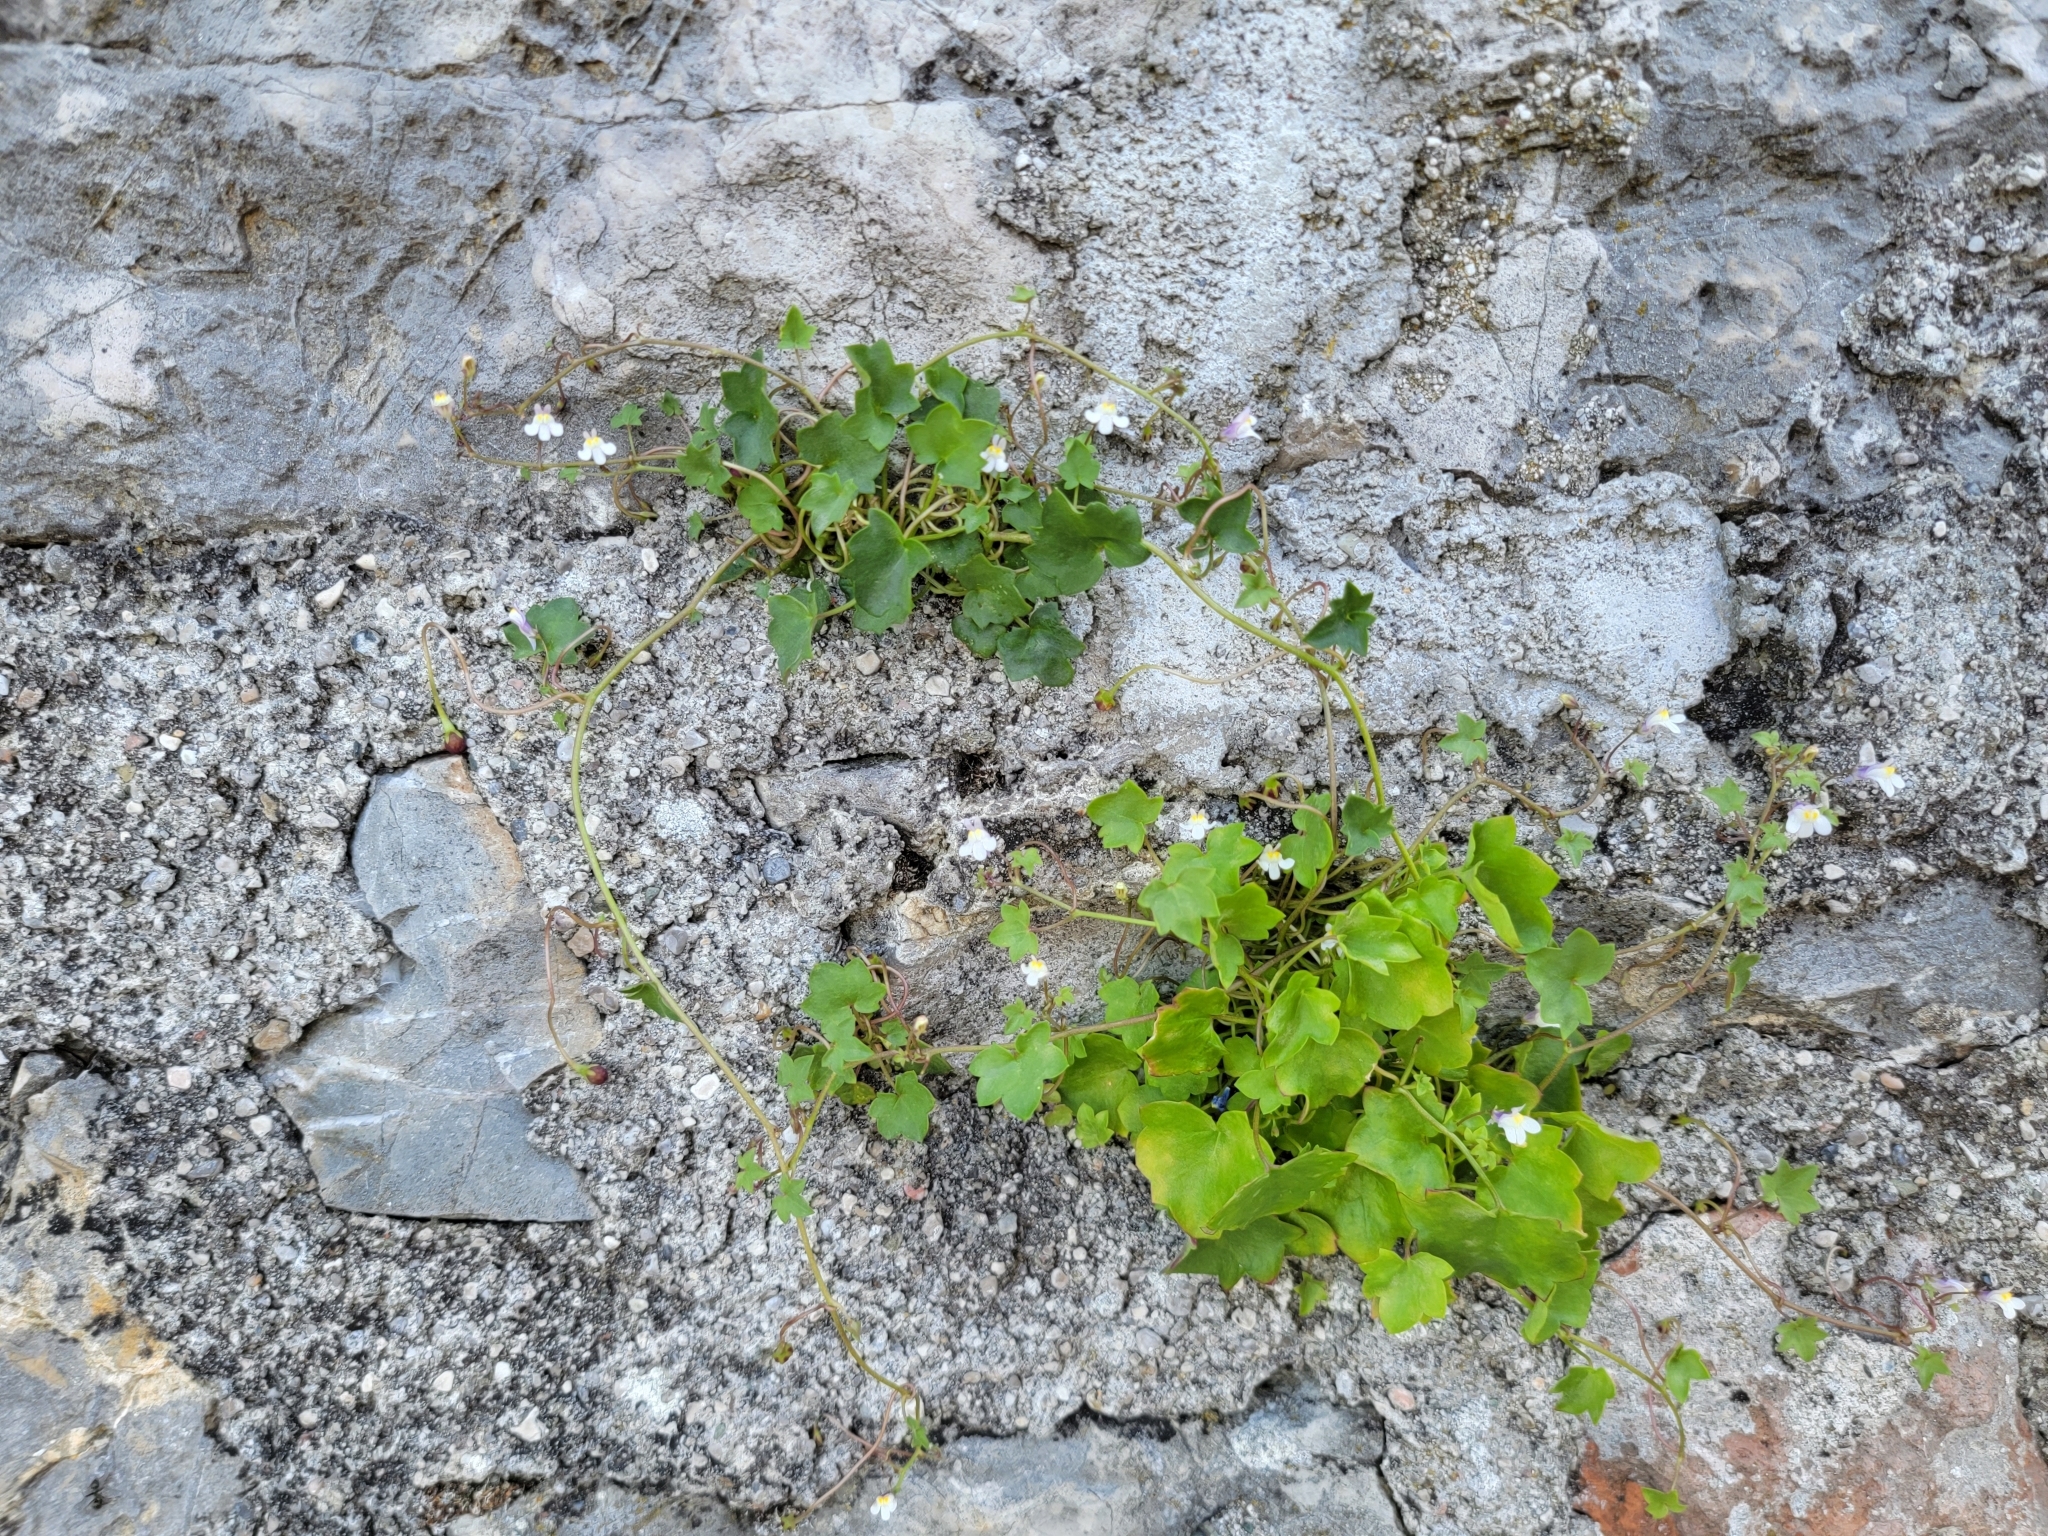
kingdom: Plantae
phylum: Tracheophyta
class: Magnoliopsida
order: Lamiales
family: Plantaginaceae
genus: Cymbalaria
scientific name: Cymbalaria muralis
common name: Ivy-leaved toadflax
